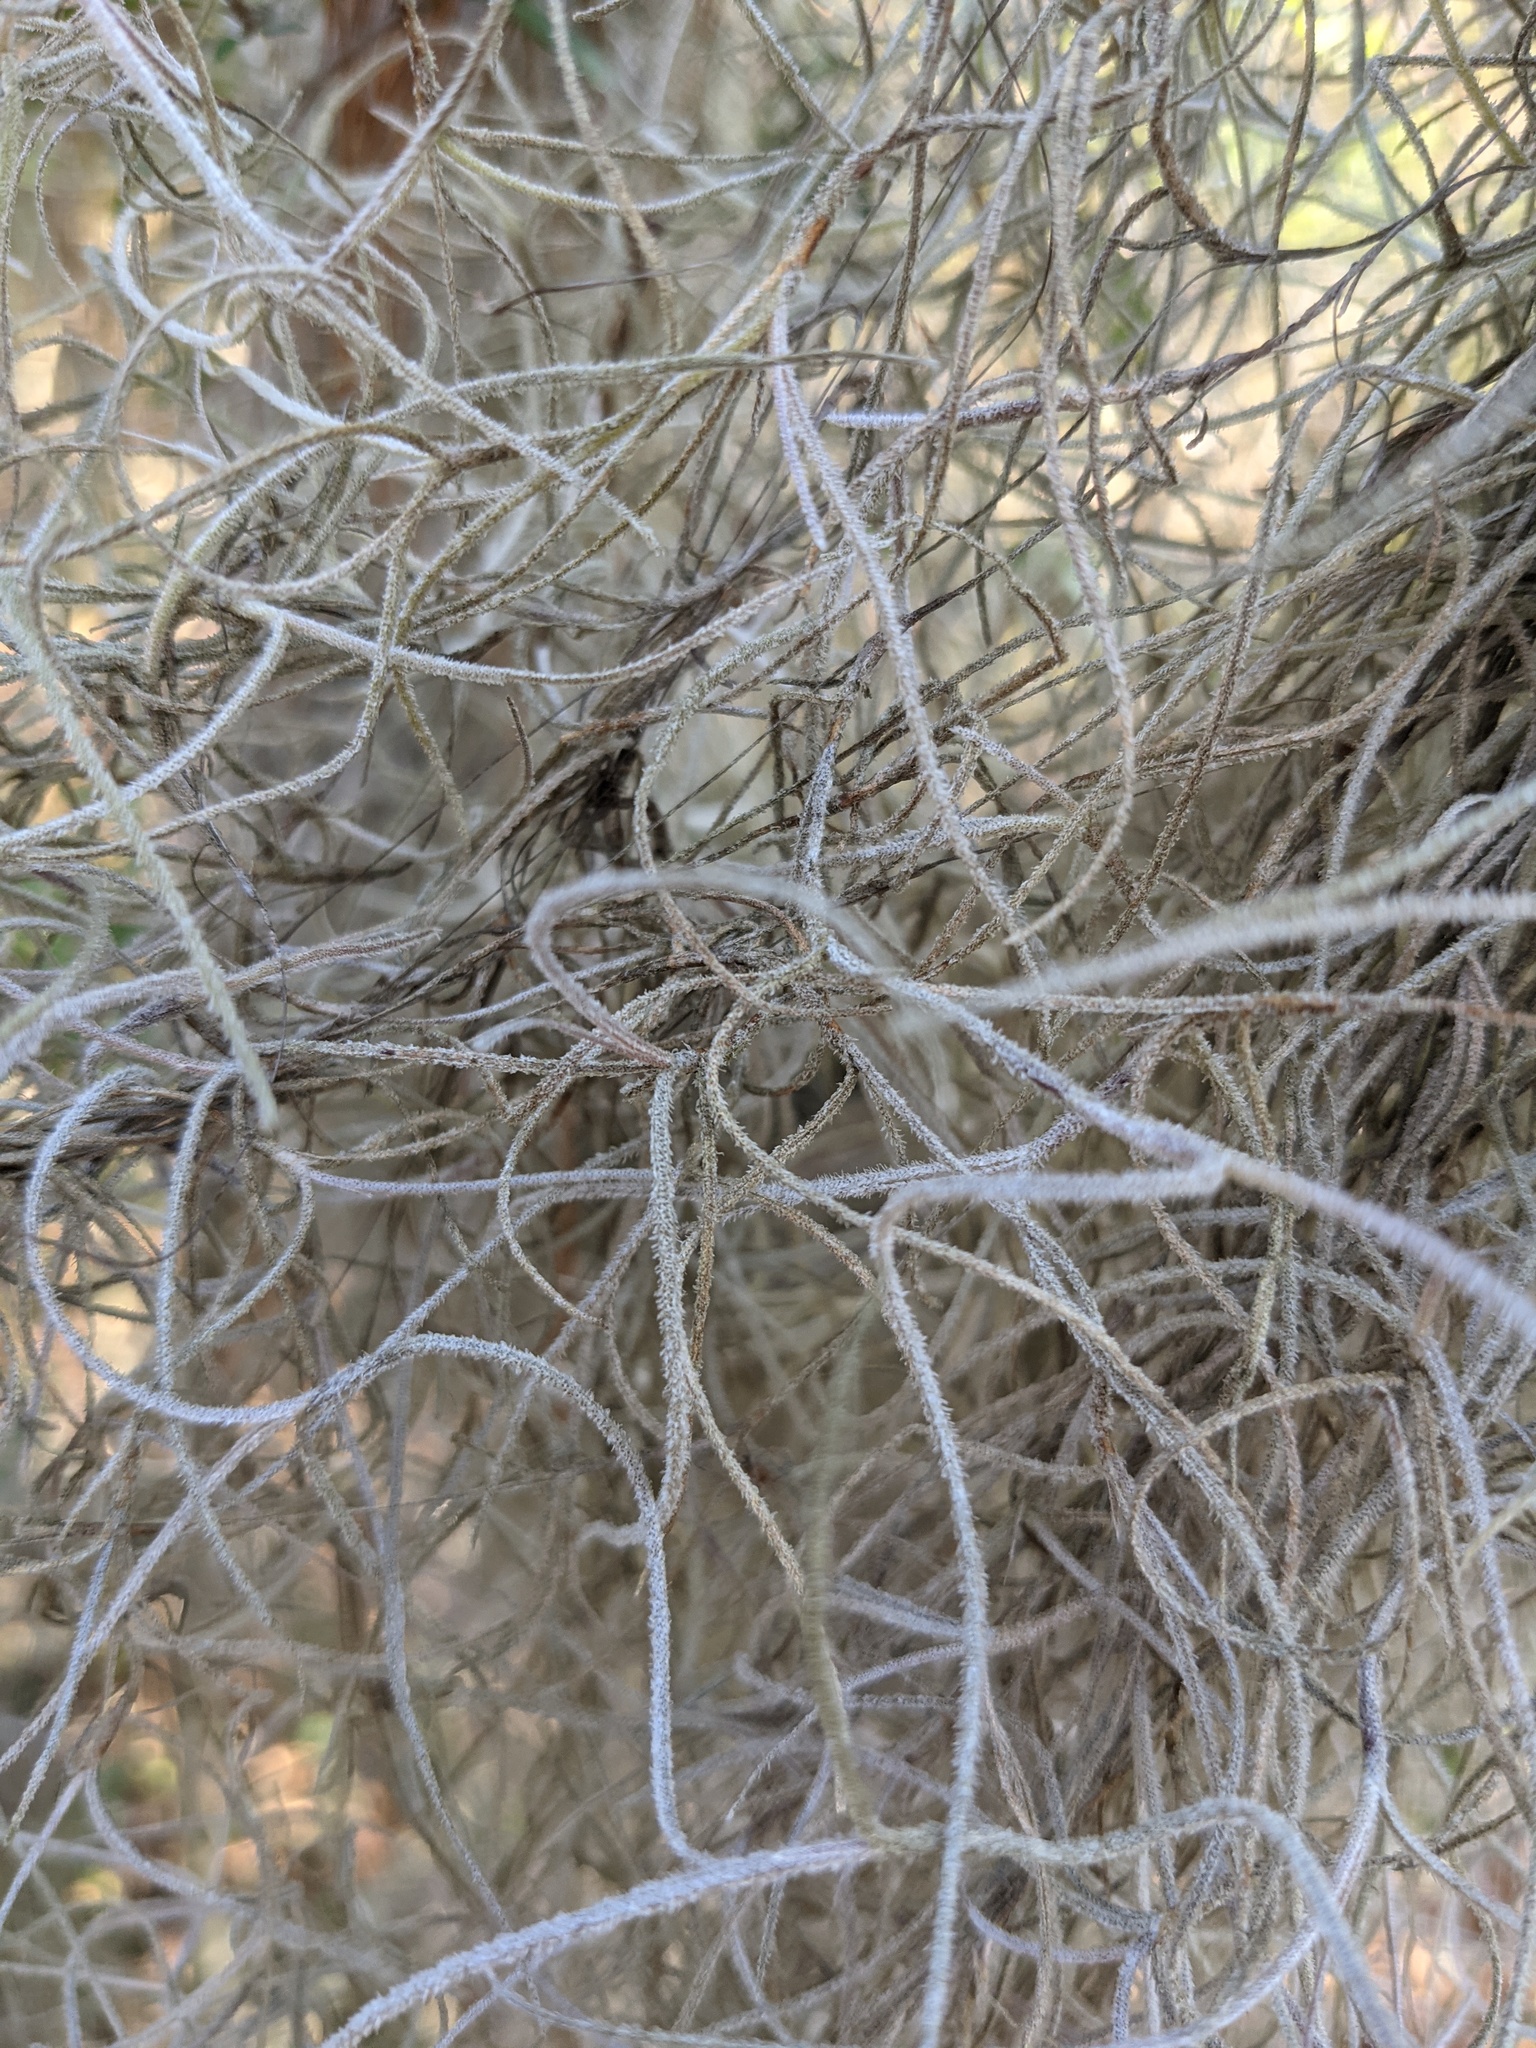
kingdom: Plantae
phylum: Tracheophyta
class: Liliopsida
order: Poales
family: Bromeliaceae
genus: Tillandsia
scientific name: Tillandsia usneoides
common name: Spanish moss
